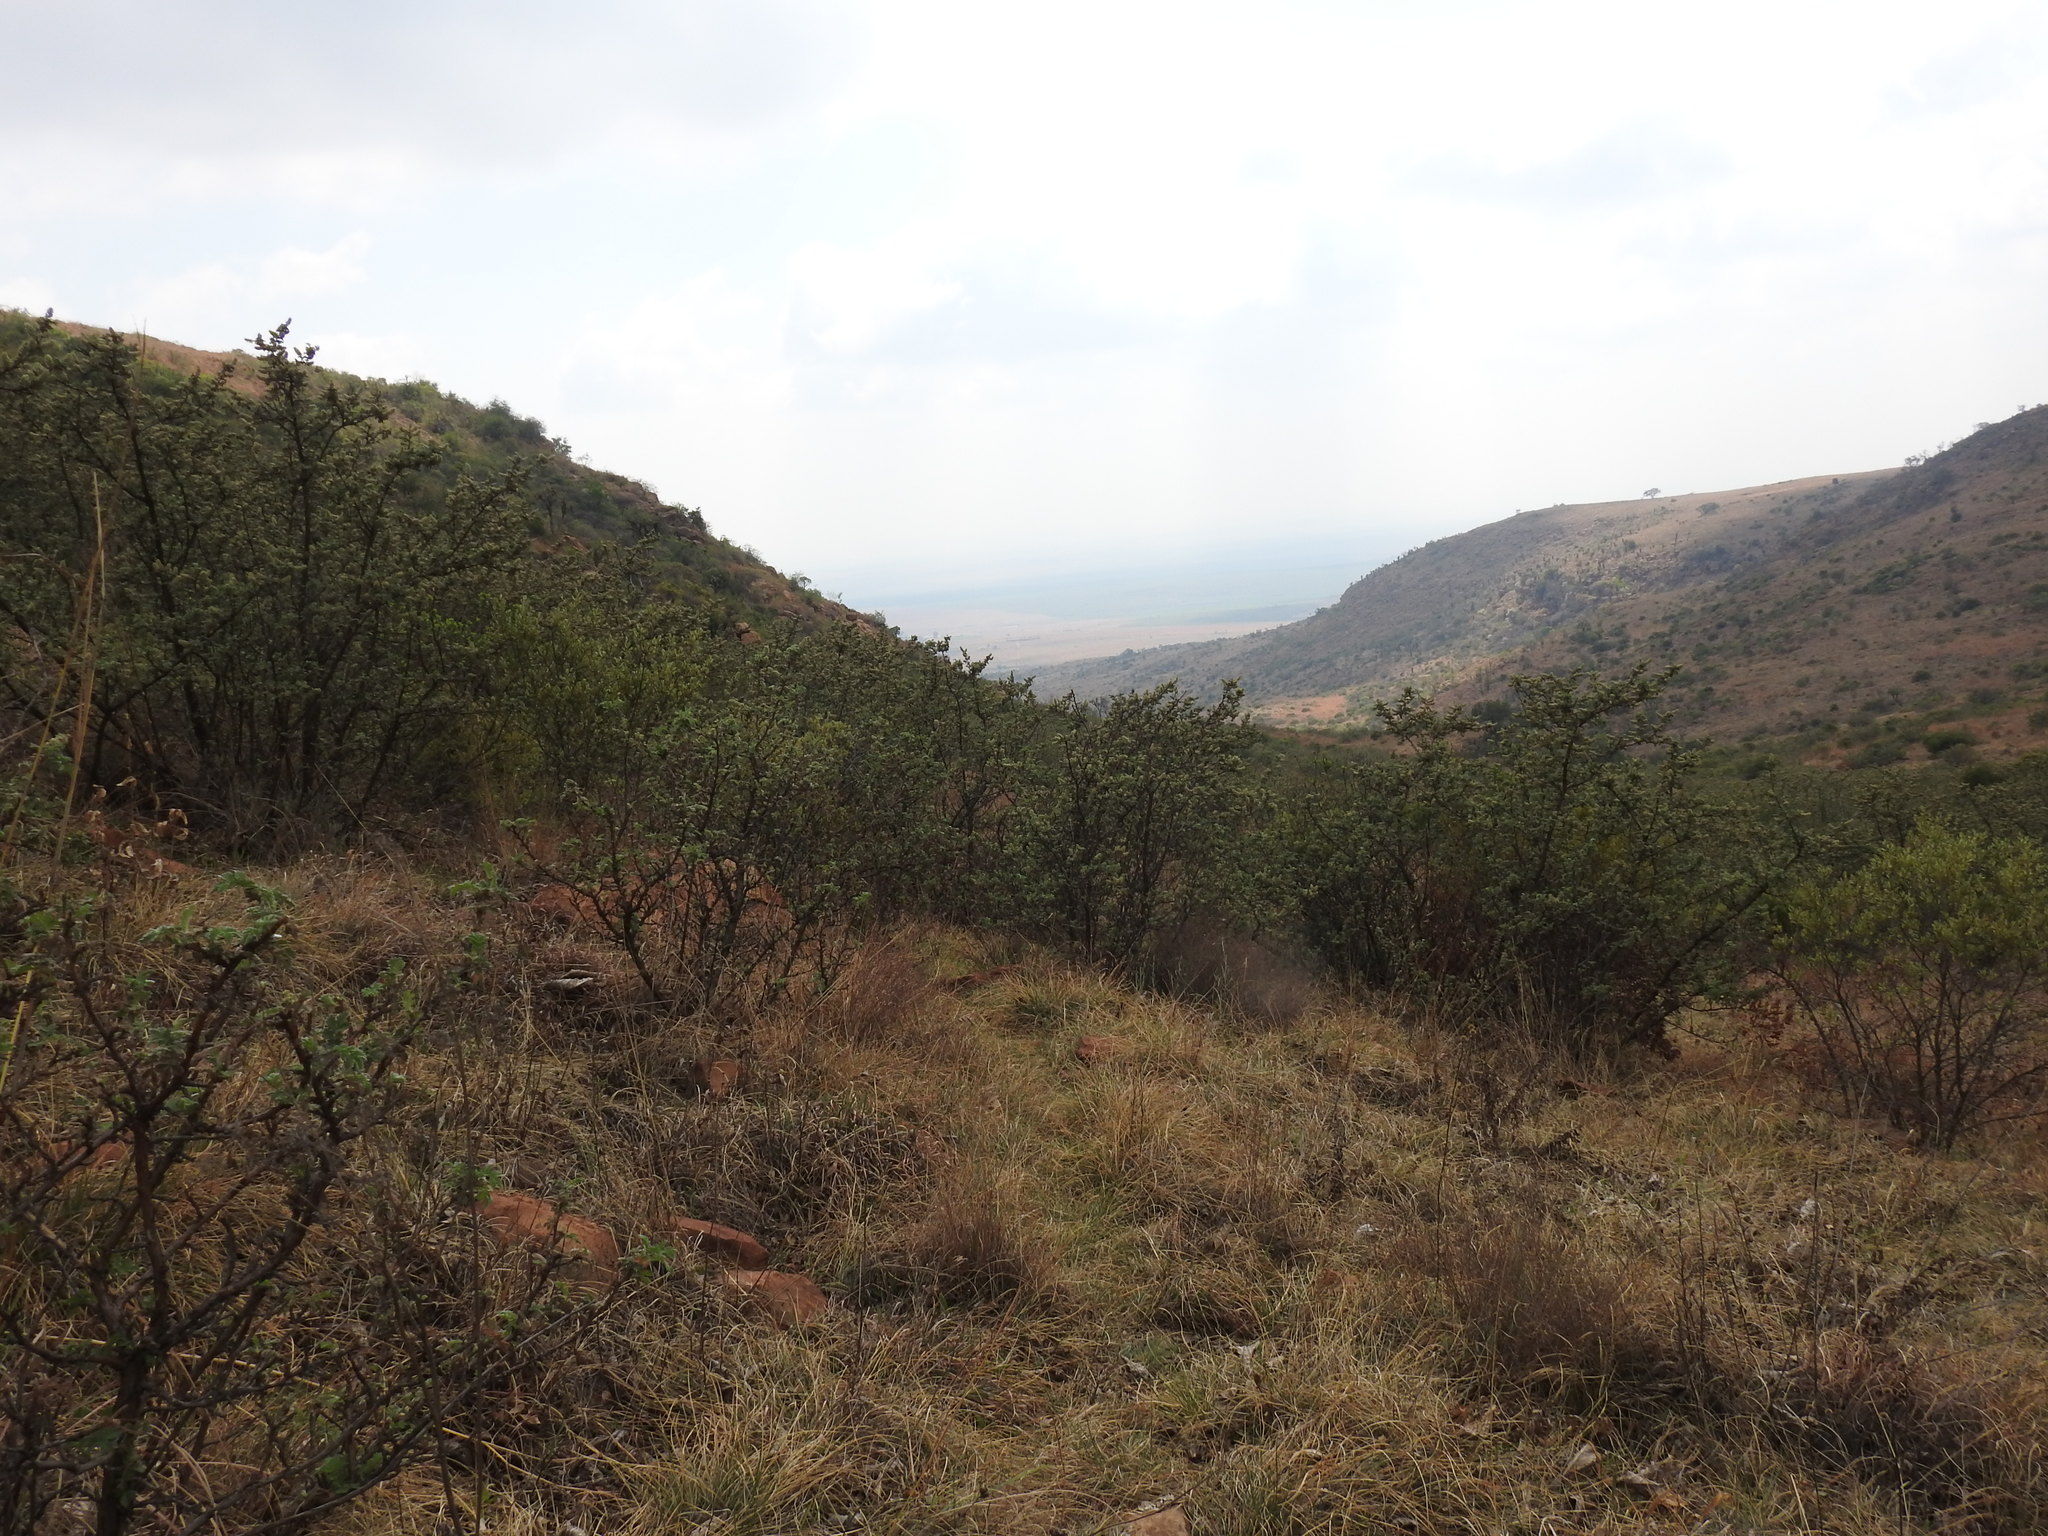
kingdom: Plantae
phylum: Tracheophyta
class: Magnoliopsida
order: Rosales
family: Rosaceae
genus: Leucosidea
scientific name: Leucosidea sericea
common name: Oldwood
